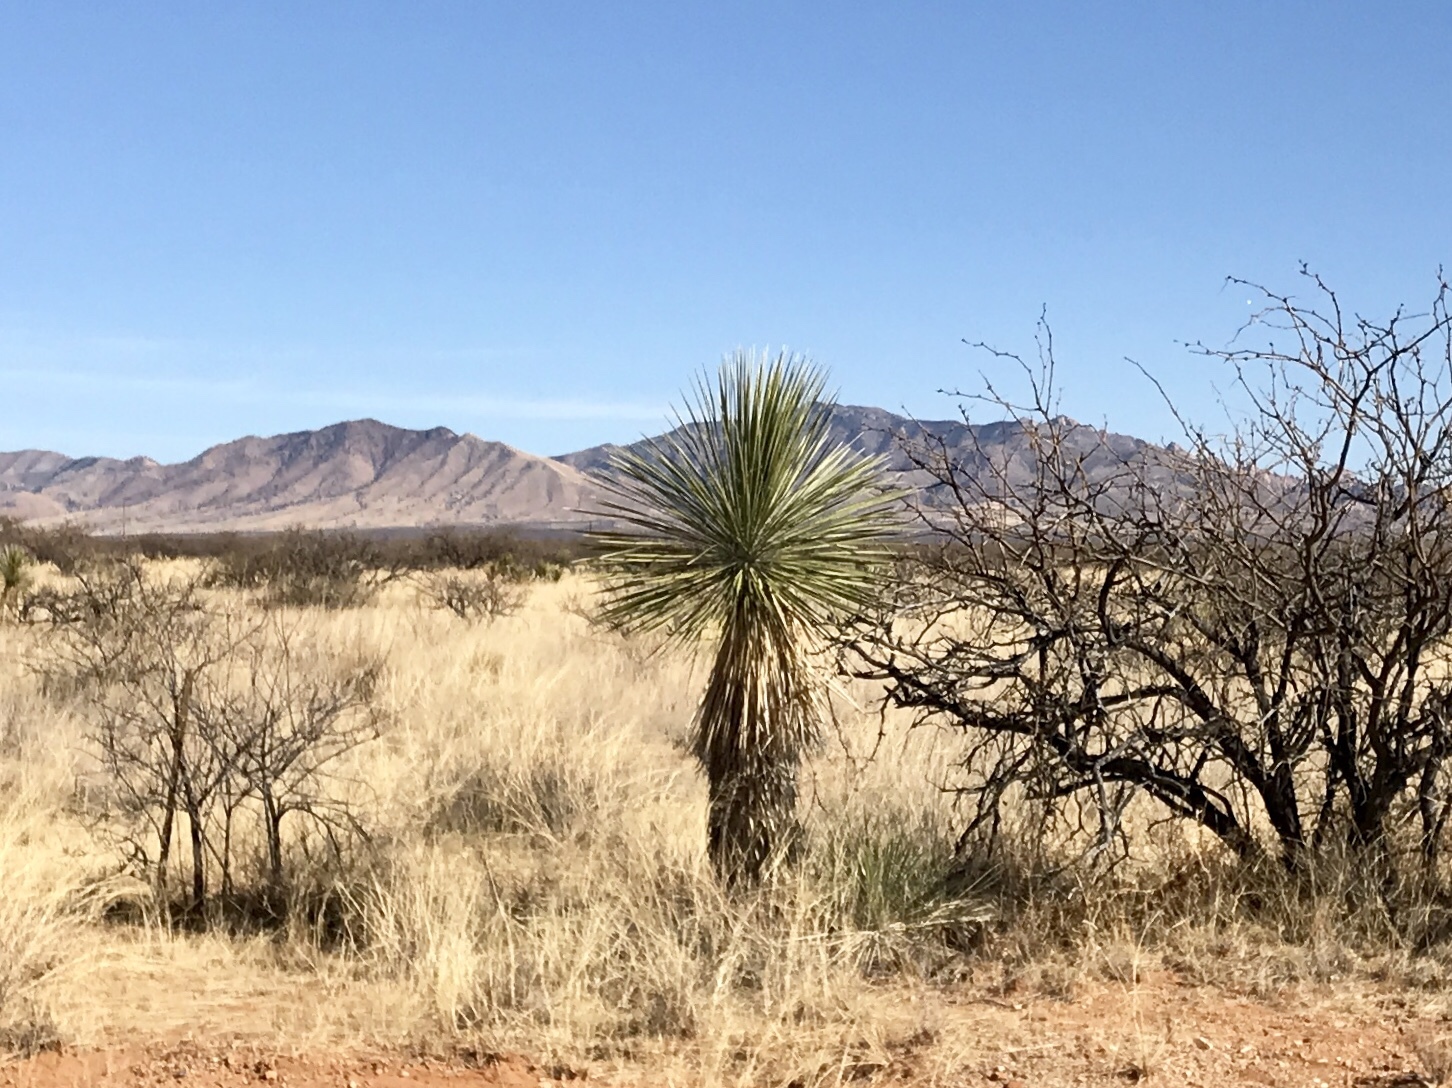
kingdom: Plantae
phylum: Tracheophyta
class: Liliopsida
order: Asparagales
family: Asparagaceae
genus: Yucca
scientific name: Yucca elata
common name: Palmella
